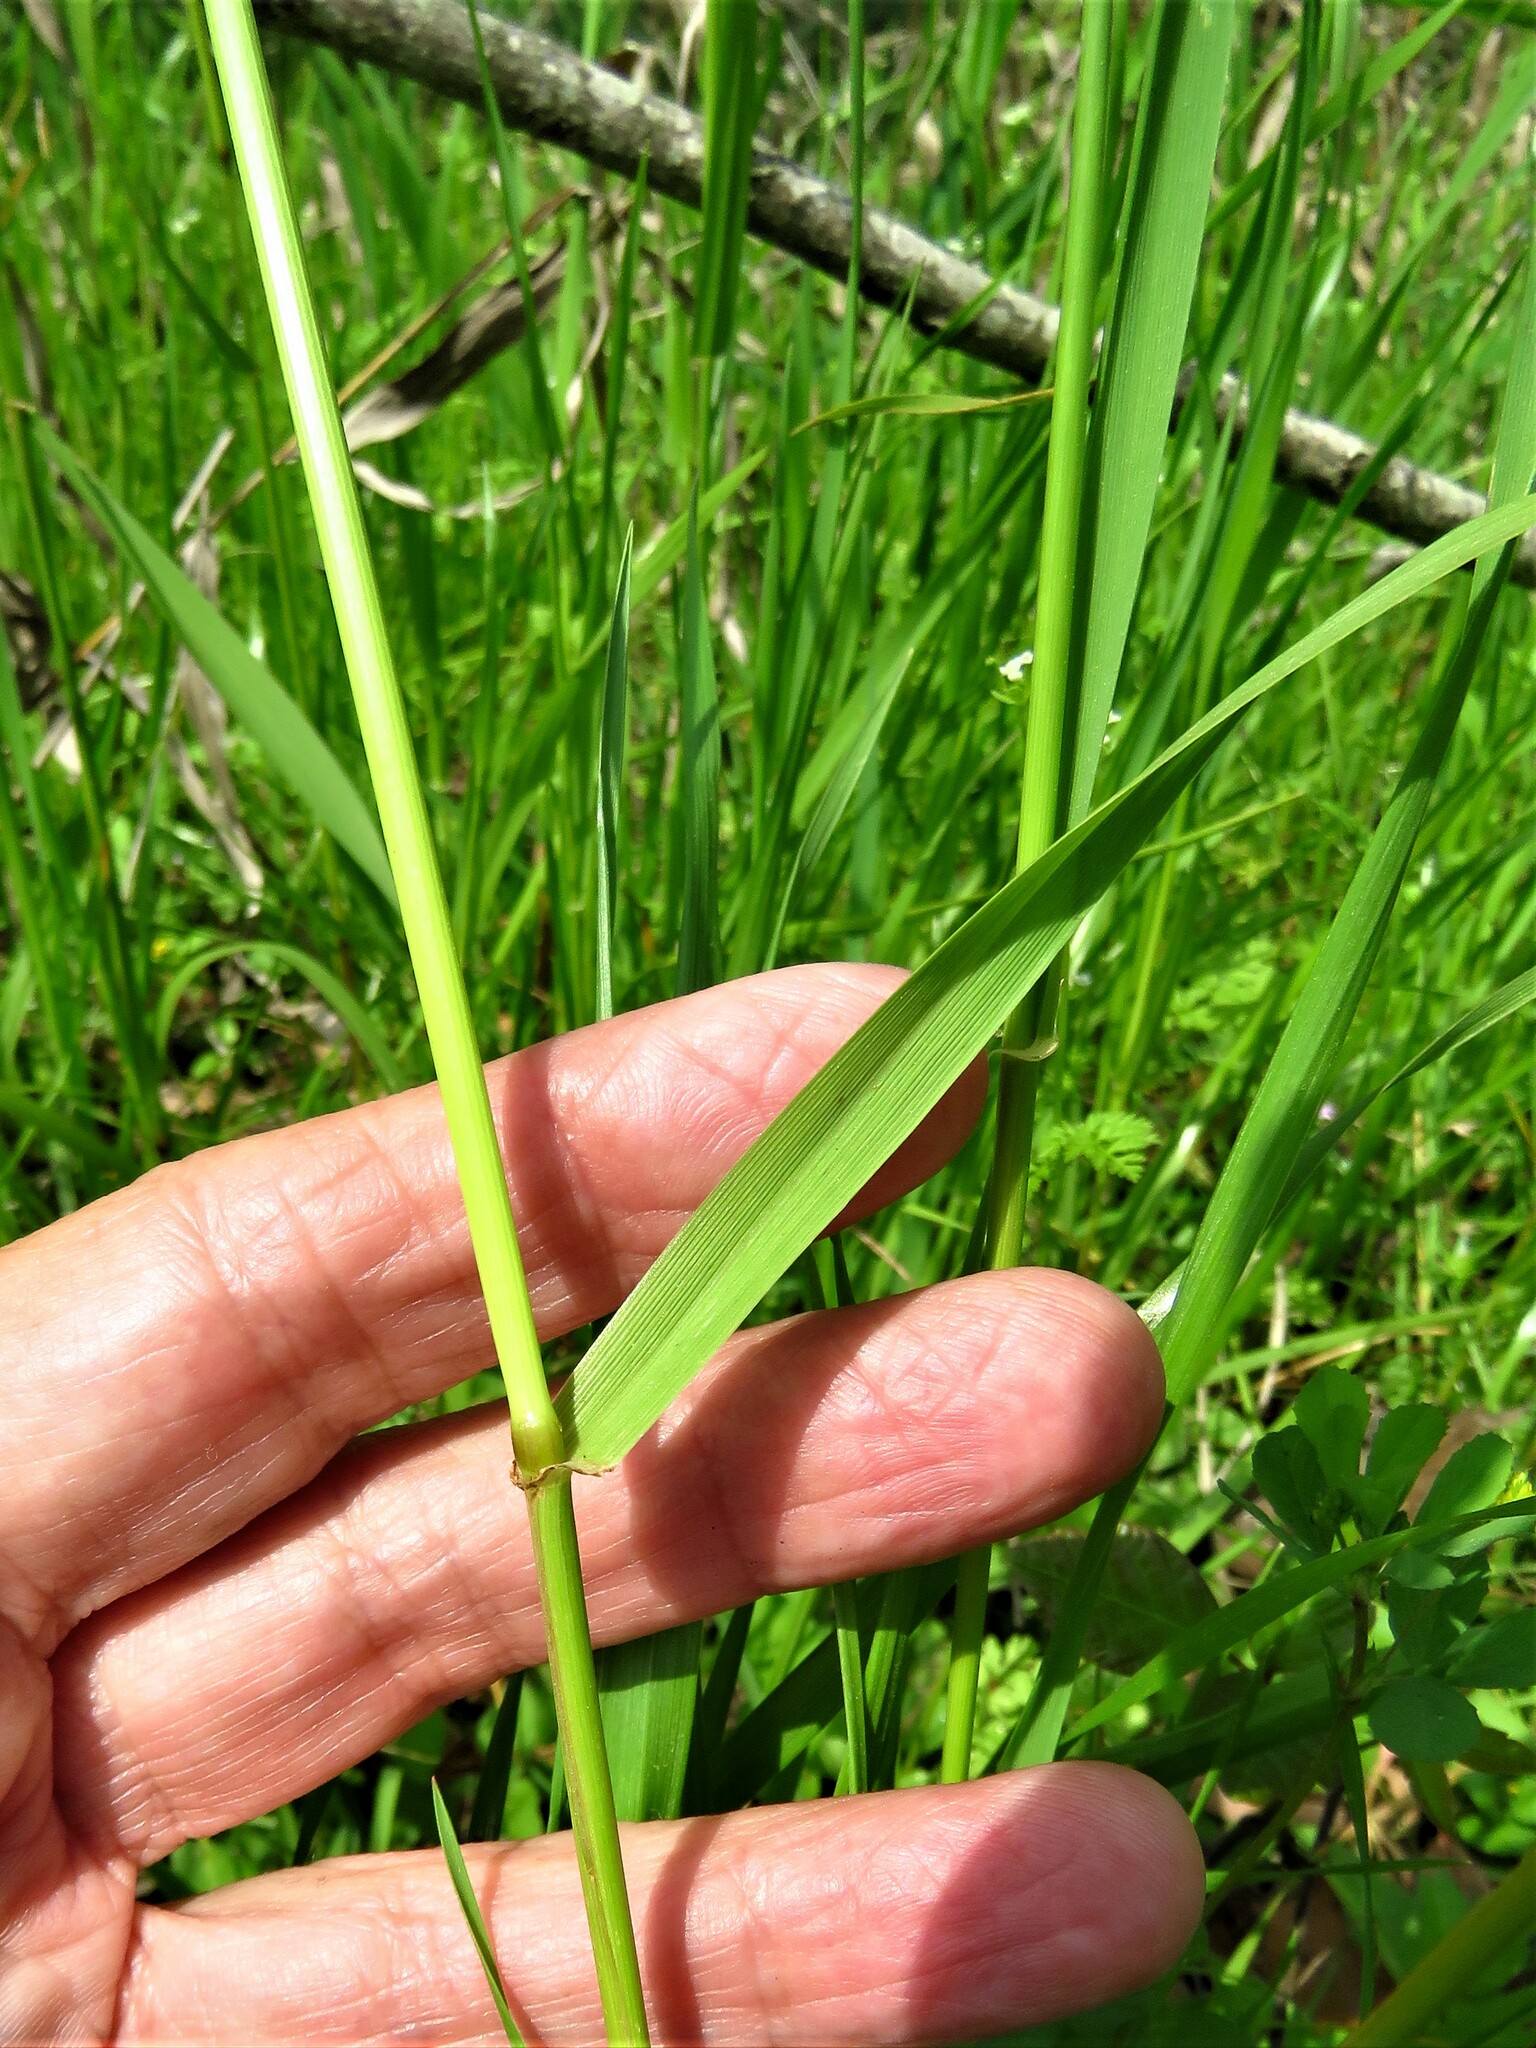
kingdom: Plantae
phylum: Tracheophyta
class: Liliopsida
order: Poales
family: Poaceae
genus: Lolium
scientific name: Lolium perenne
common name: Perennial ryegrass
